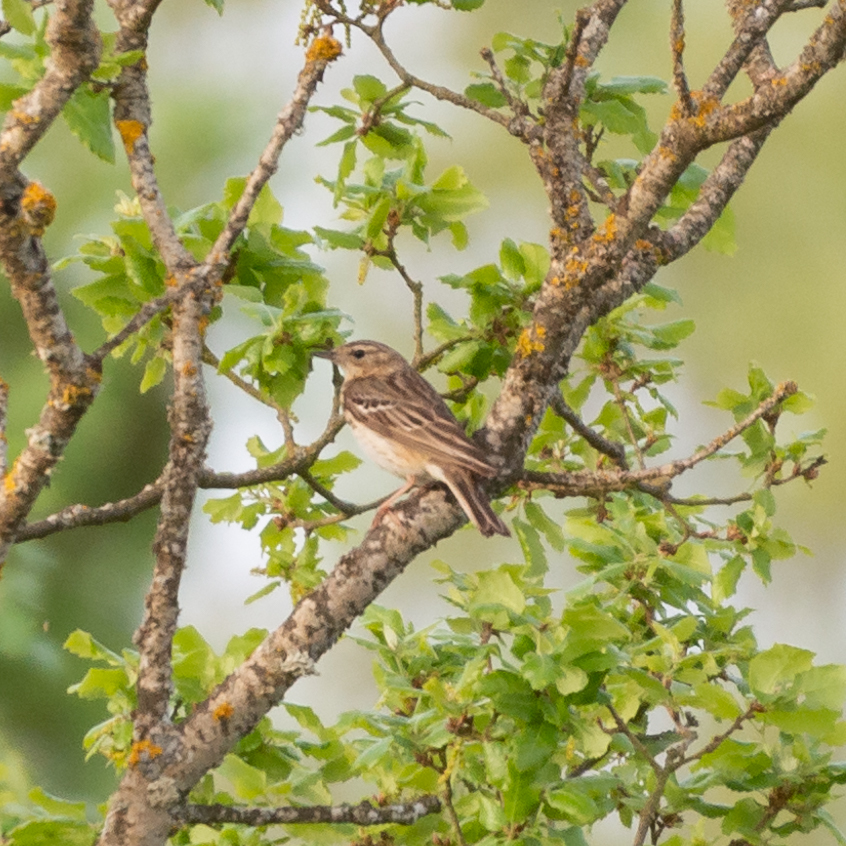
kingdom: Animalia
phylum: Chordata
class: Aves
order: Passeriformes
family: Motacillidae
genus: Anthus
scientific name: Anthus trivialis
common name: Tree pipit
